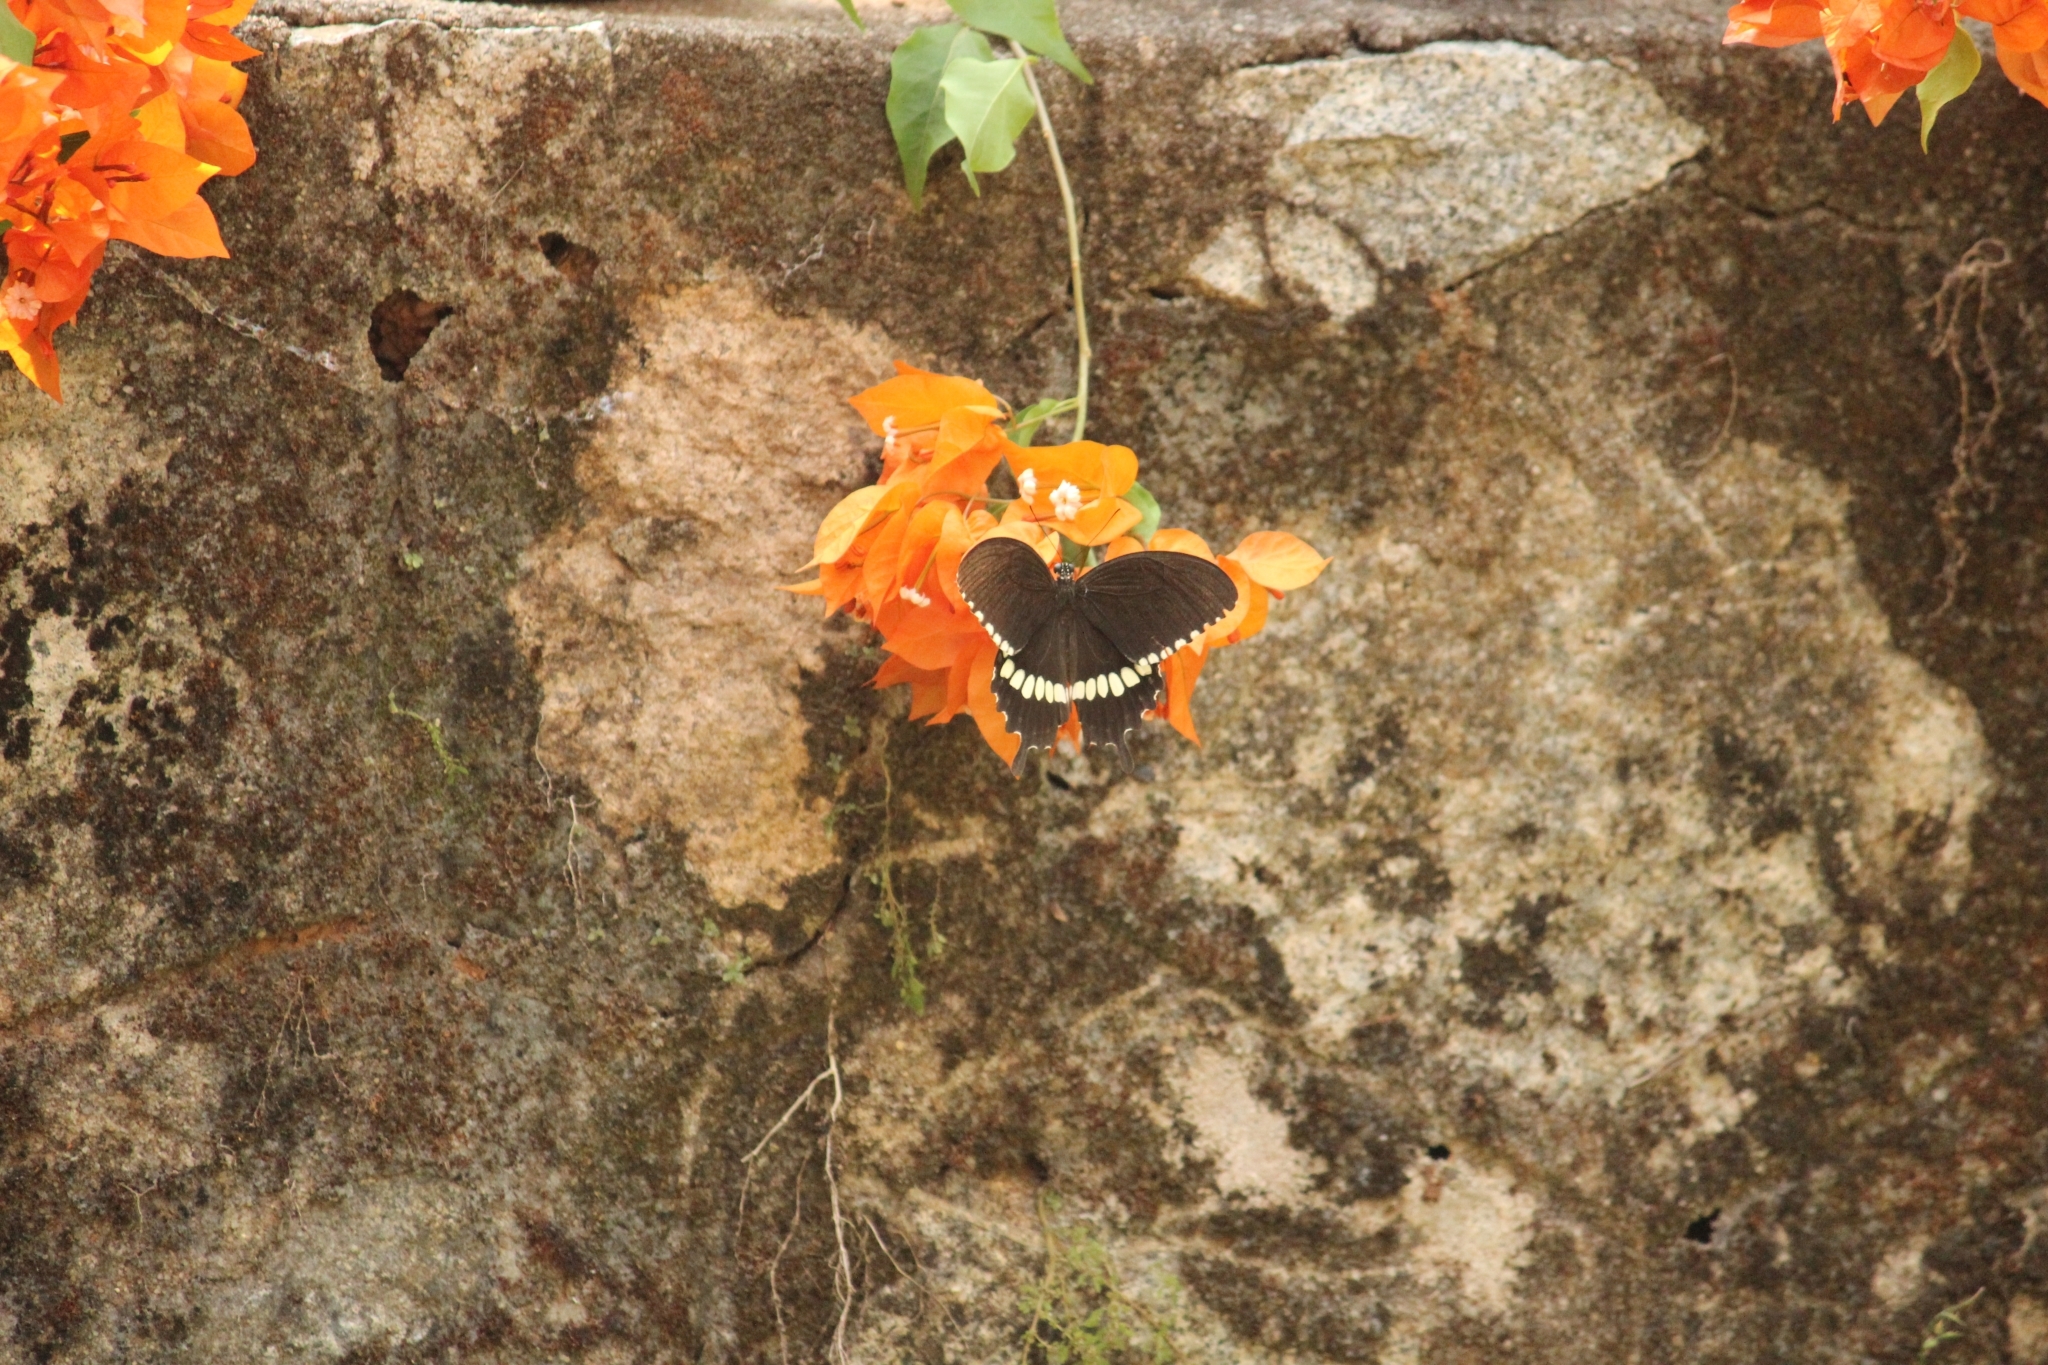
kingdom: Animalia
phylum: Arthropoda
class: Insecta
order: Lepidoptera
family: Papilionidae
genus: Papilio
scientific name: Papilio polytes
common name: Common mormon
